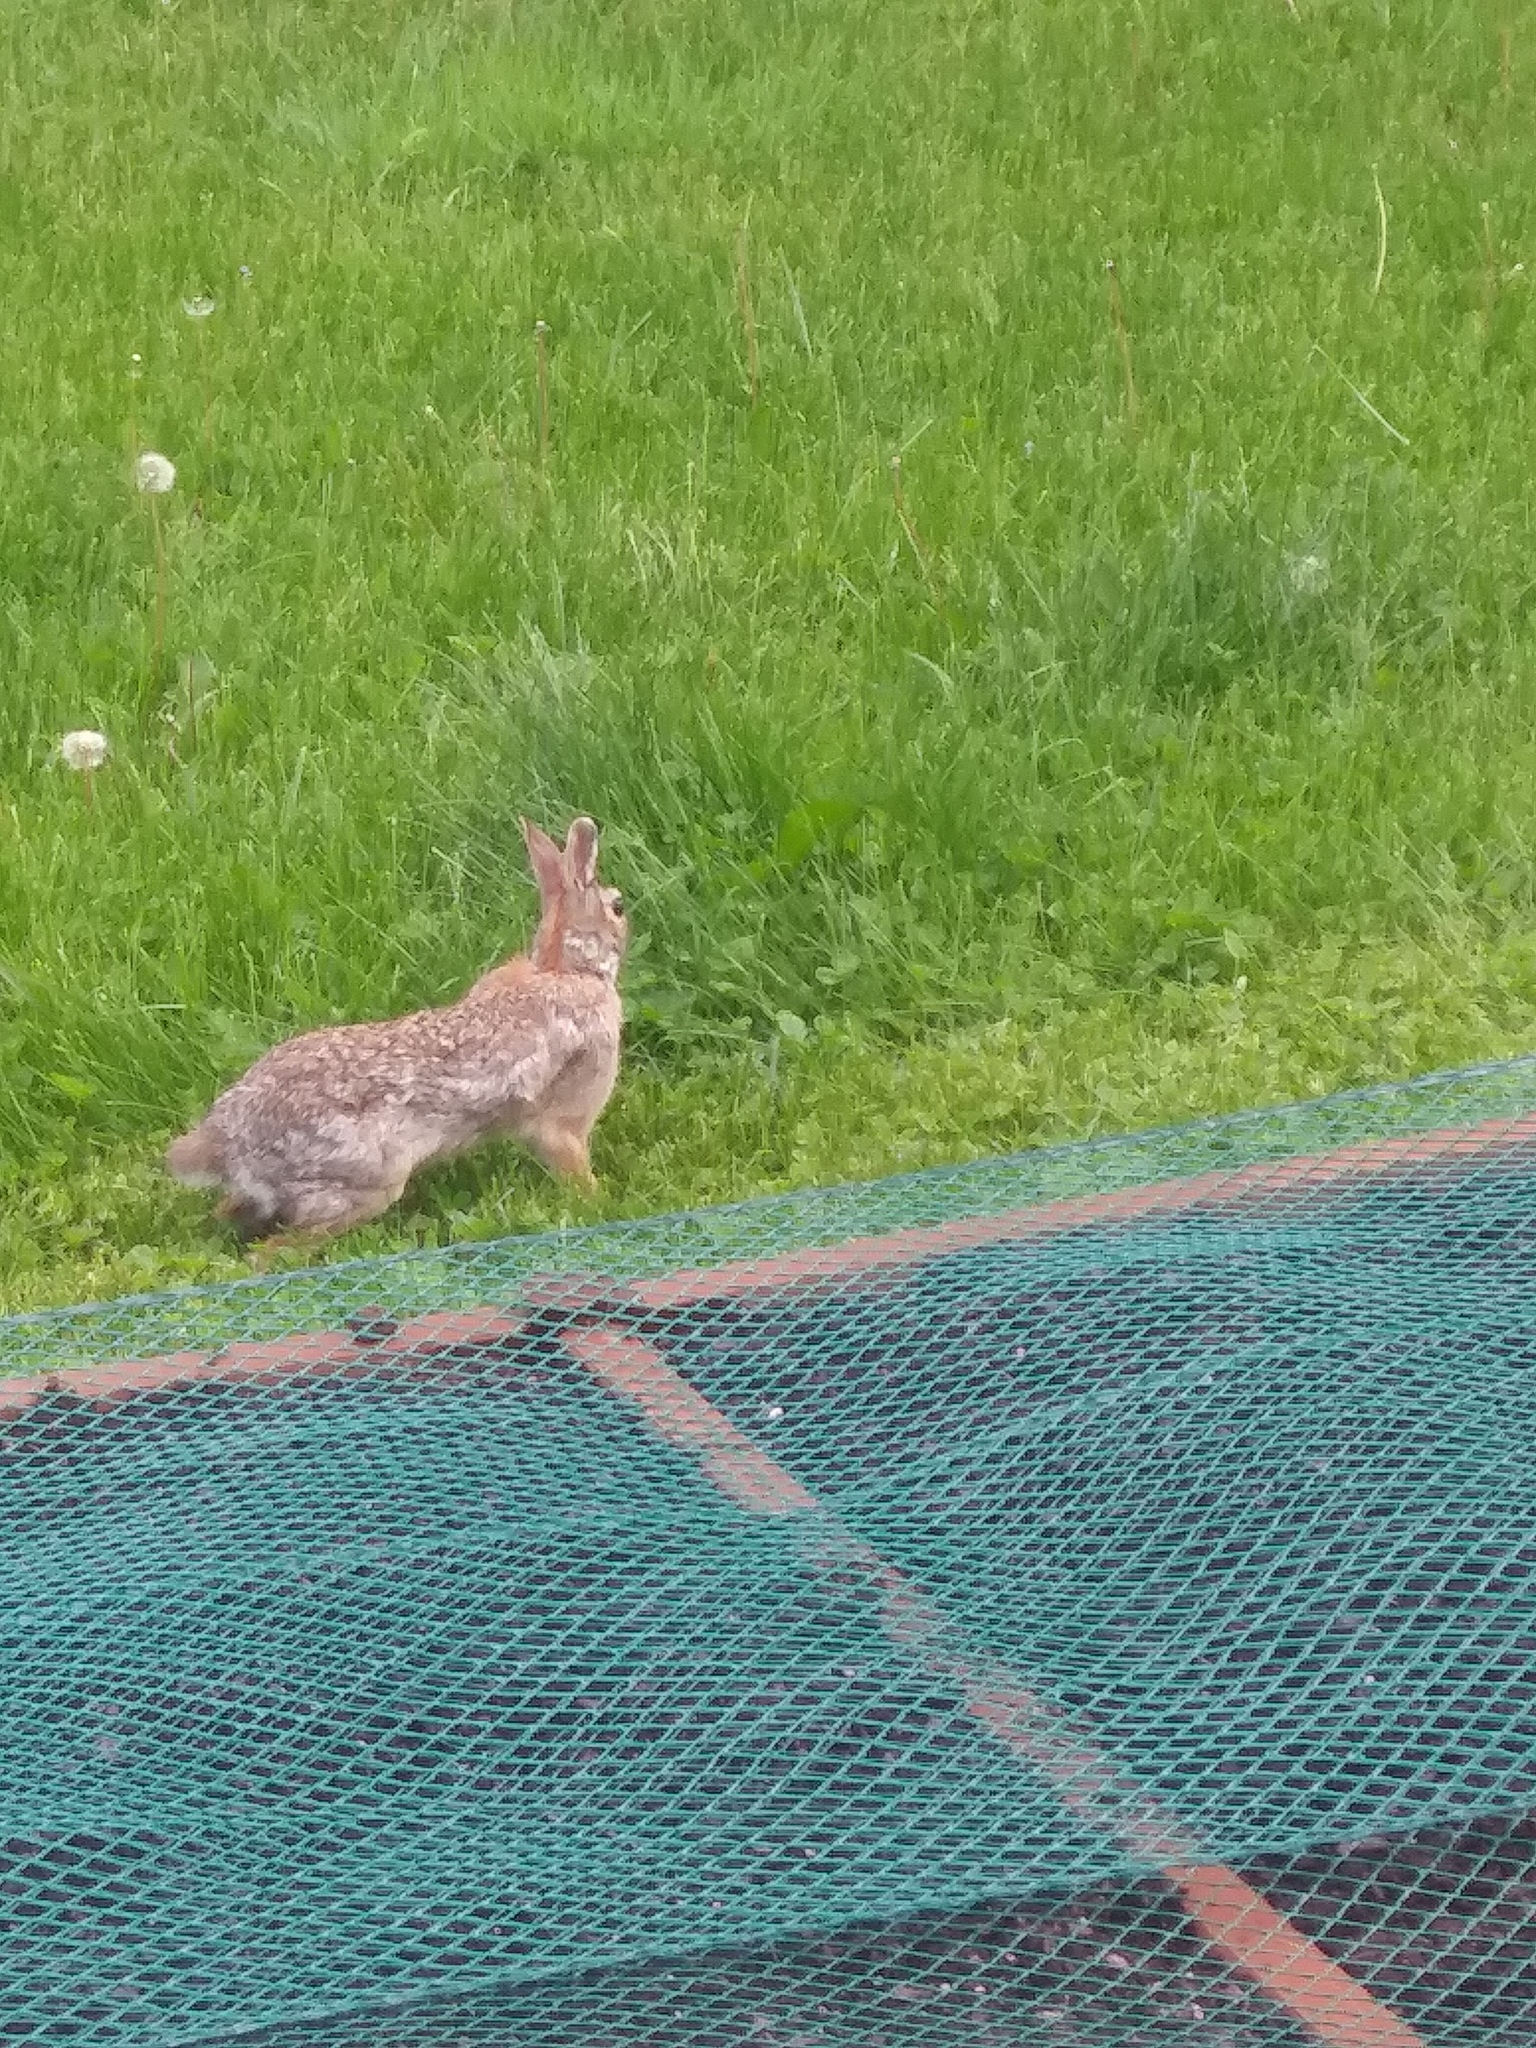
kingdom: Animalia
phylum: Chordata
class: Mammalia
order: Lagomorpha
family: Leporidae
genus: Sylvilagus
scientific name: Sylvilagus floridanus
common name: Eastern cottontail
